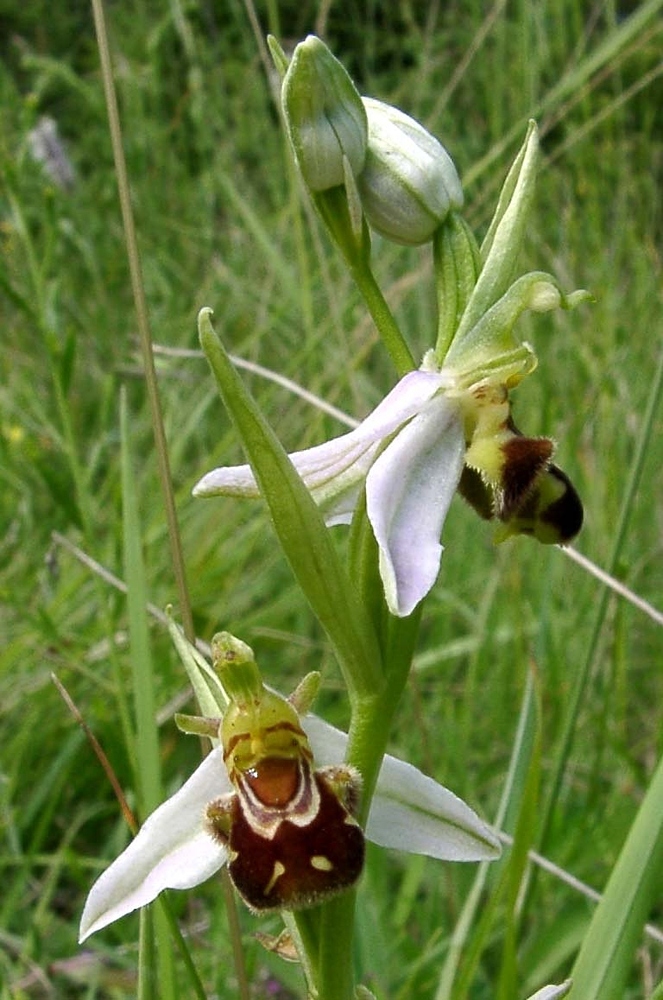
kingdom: Plantae
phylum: Tracheophyta
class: Liliopsida
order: Asparagales
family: Orchidaceae
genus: Ophrys
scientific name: Ophrys apifera
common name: Bee orchid
